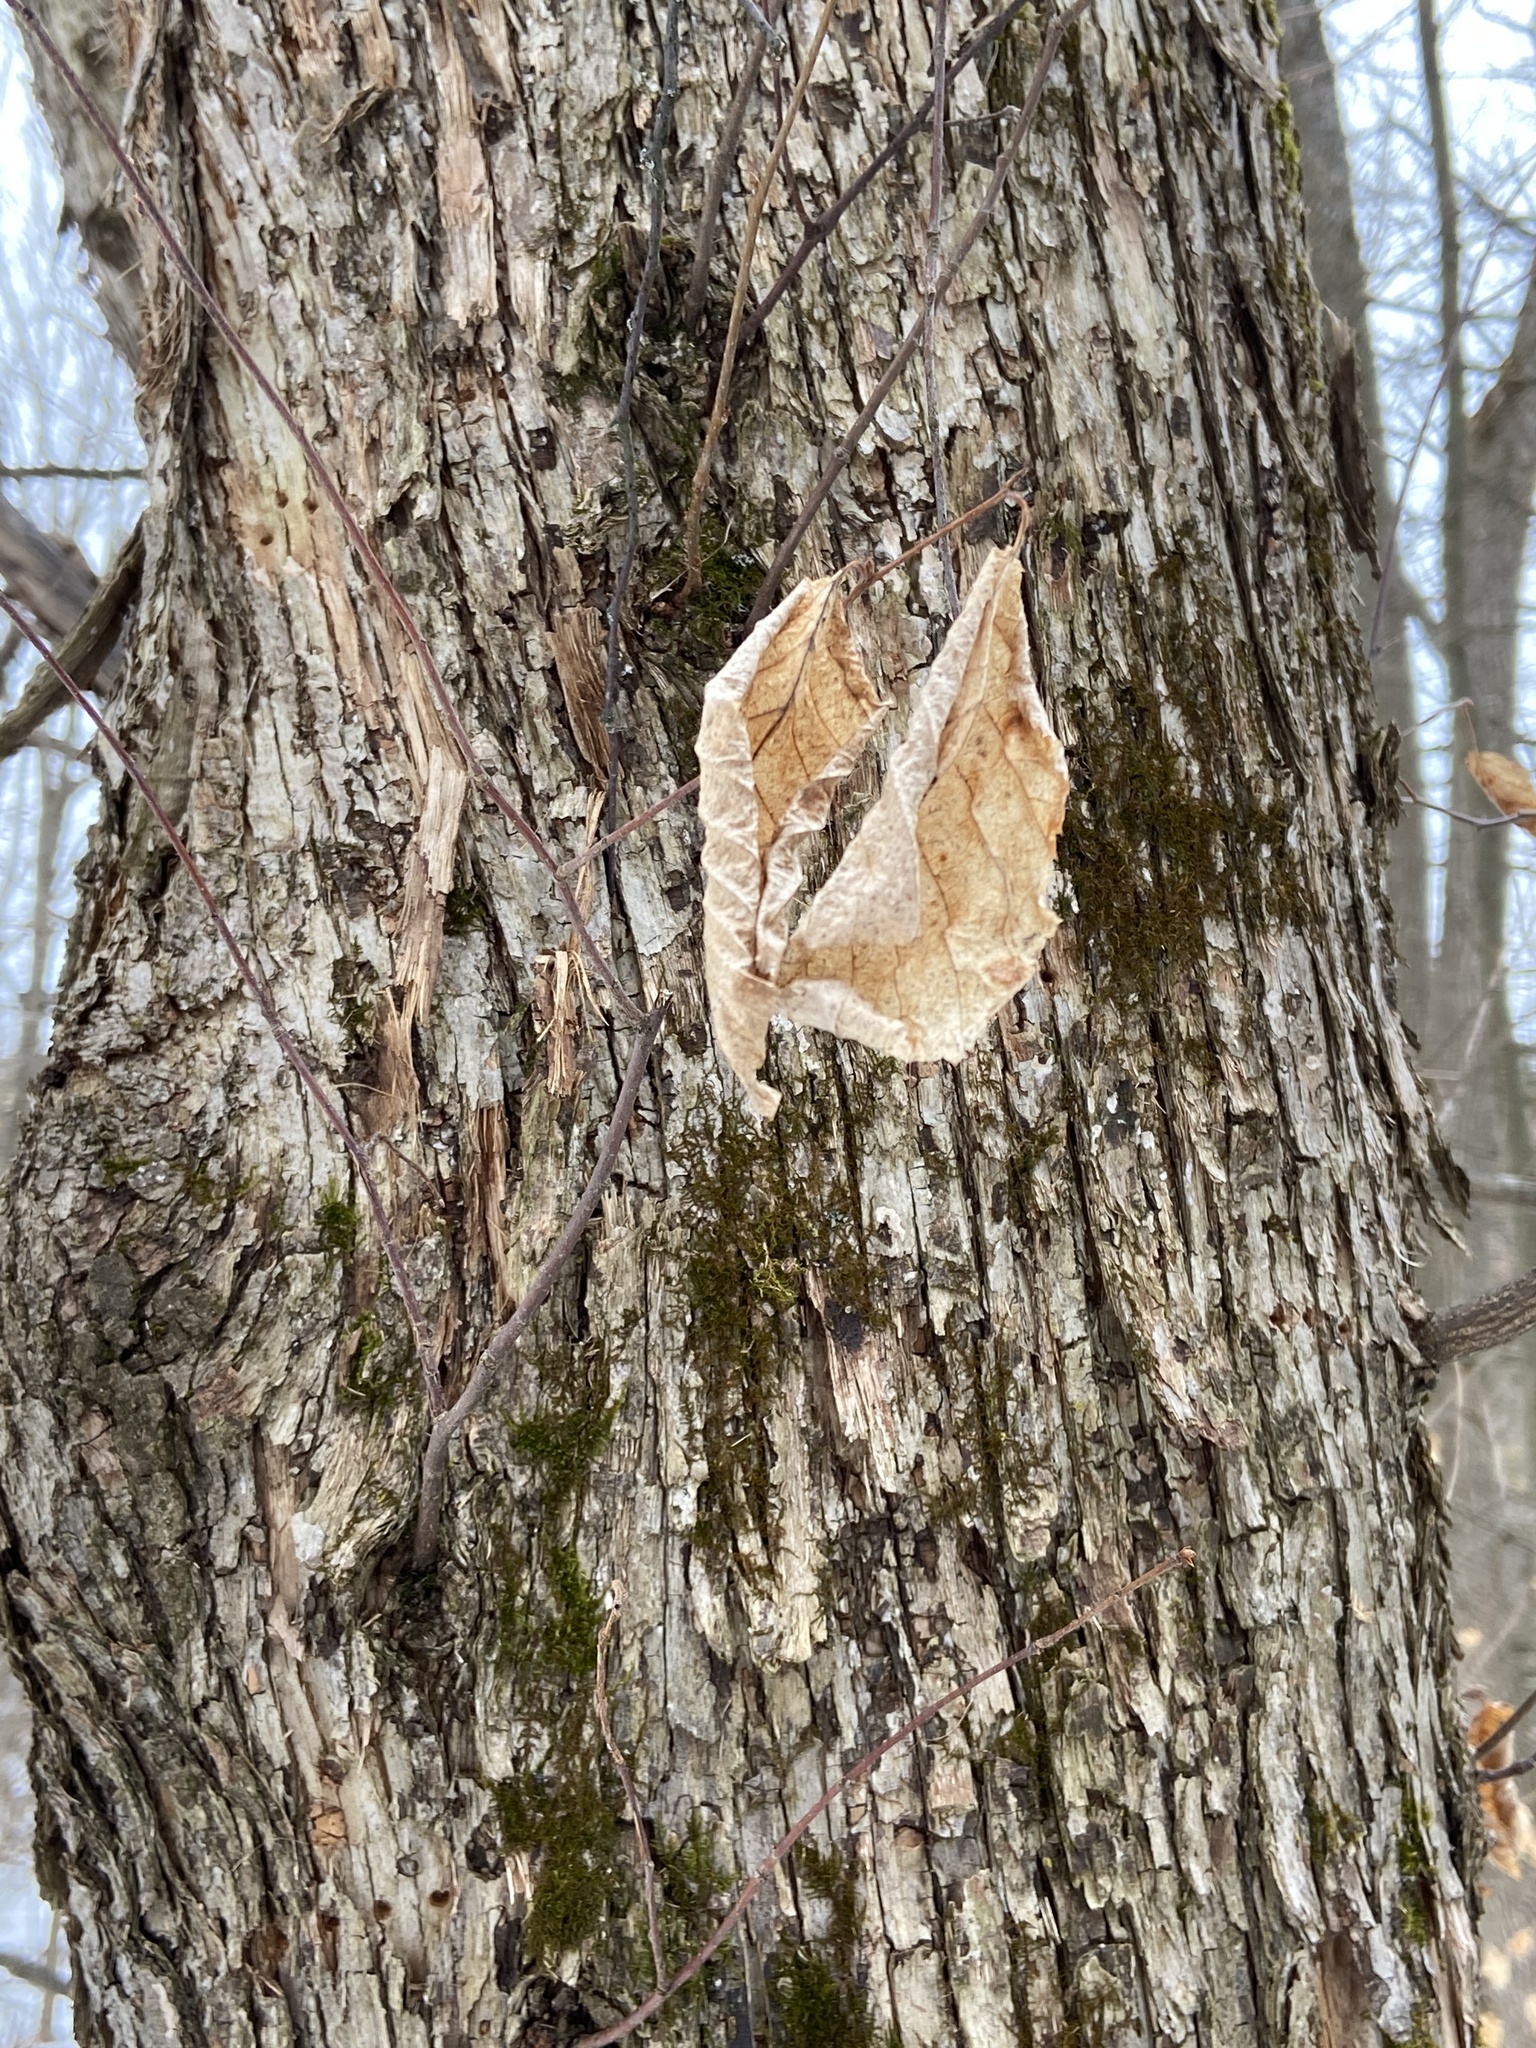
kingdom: Plantae
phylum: Tracheophyta
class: Magnoliopsida
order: Fagales
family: Betulaceae
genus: Ostrya
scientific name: Ostrya virginiana
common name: Ironwood
